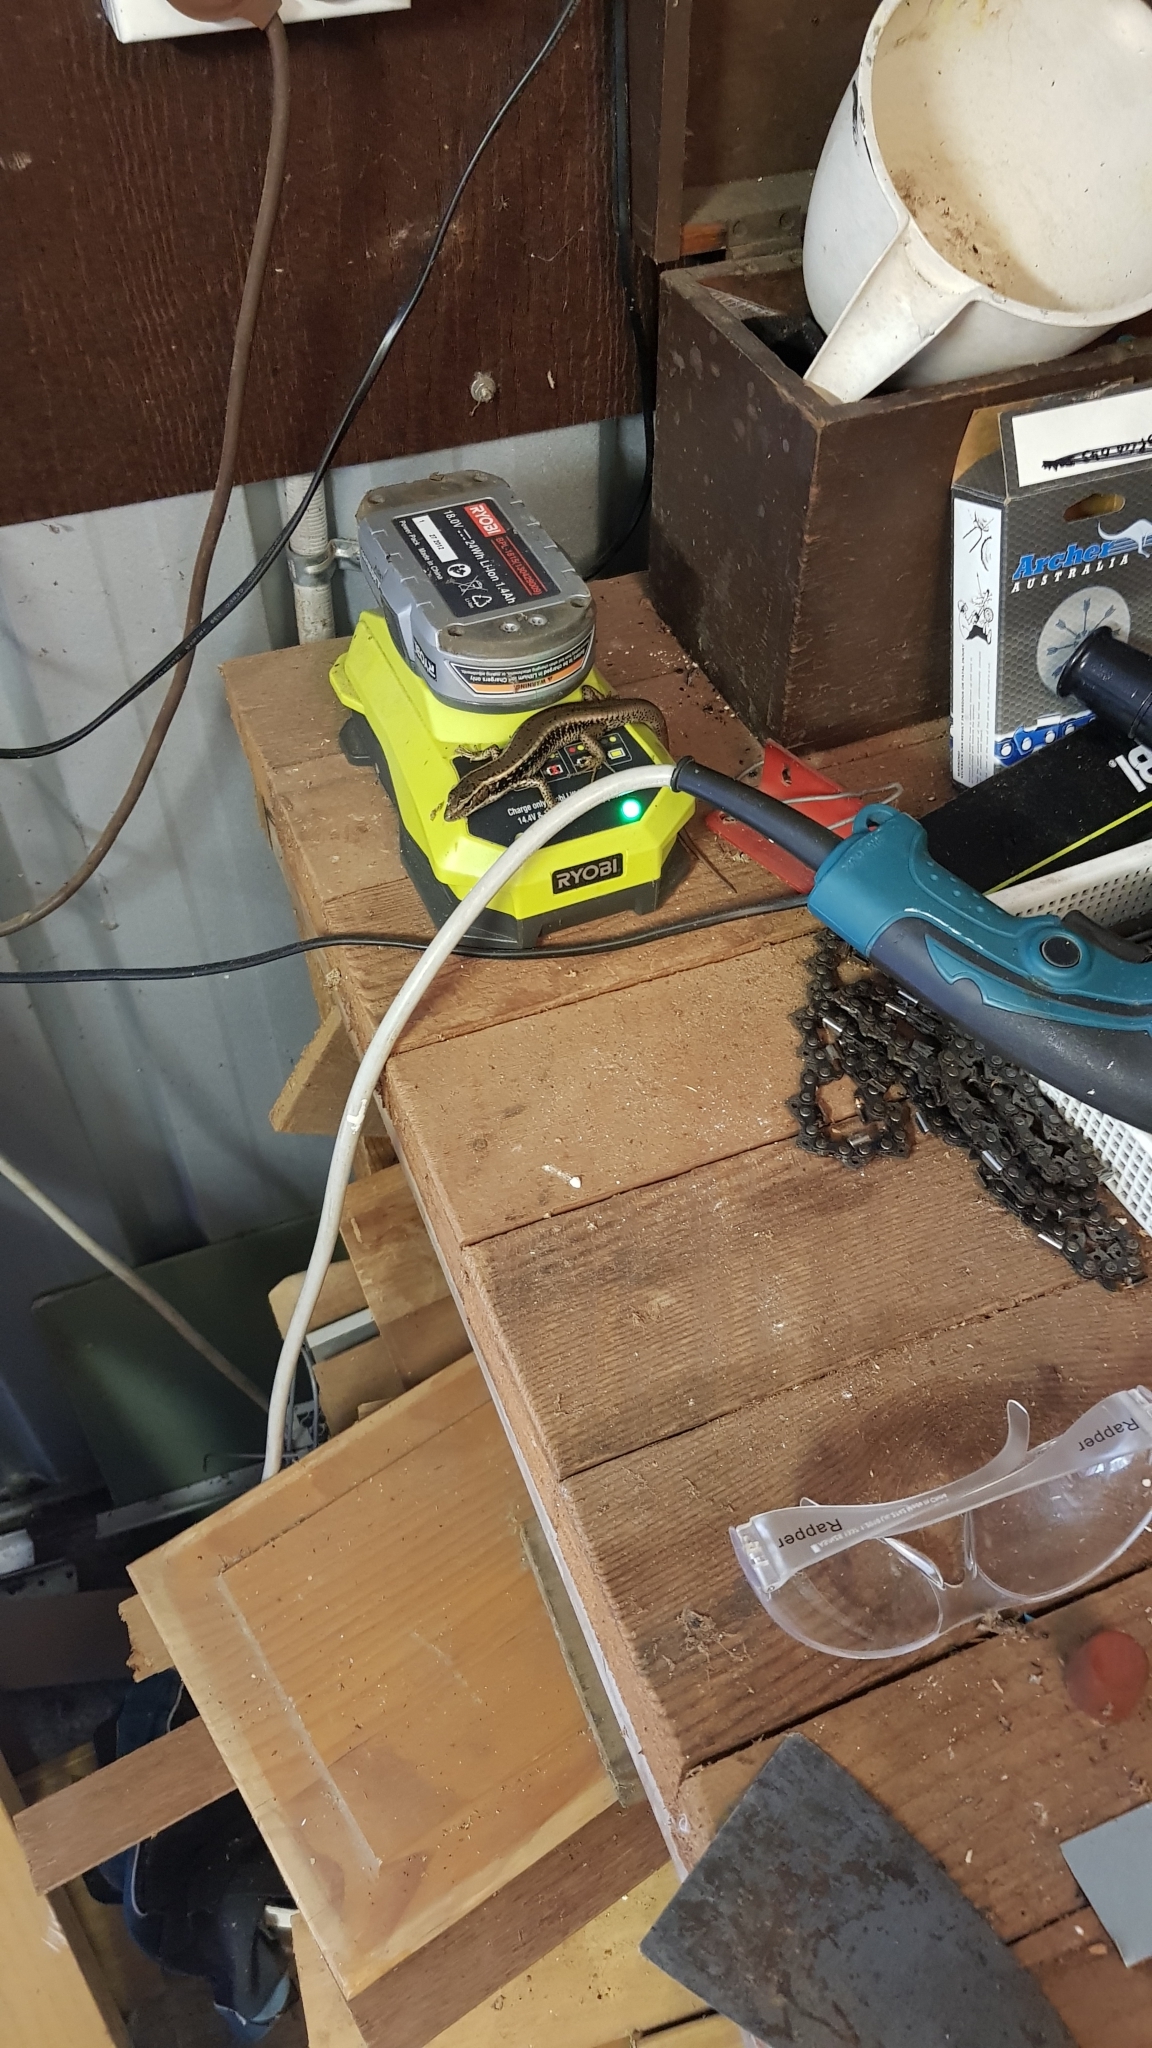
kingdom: Animalia
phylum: Chordata
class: Squamata
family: Scincidae
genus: Eulamprus
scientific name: Eulamprus quoyii
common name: Eastern water skink
